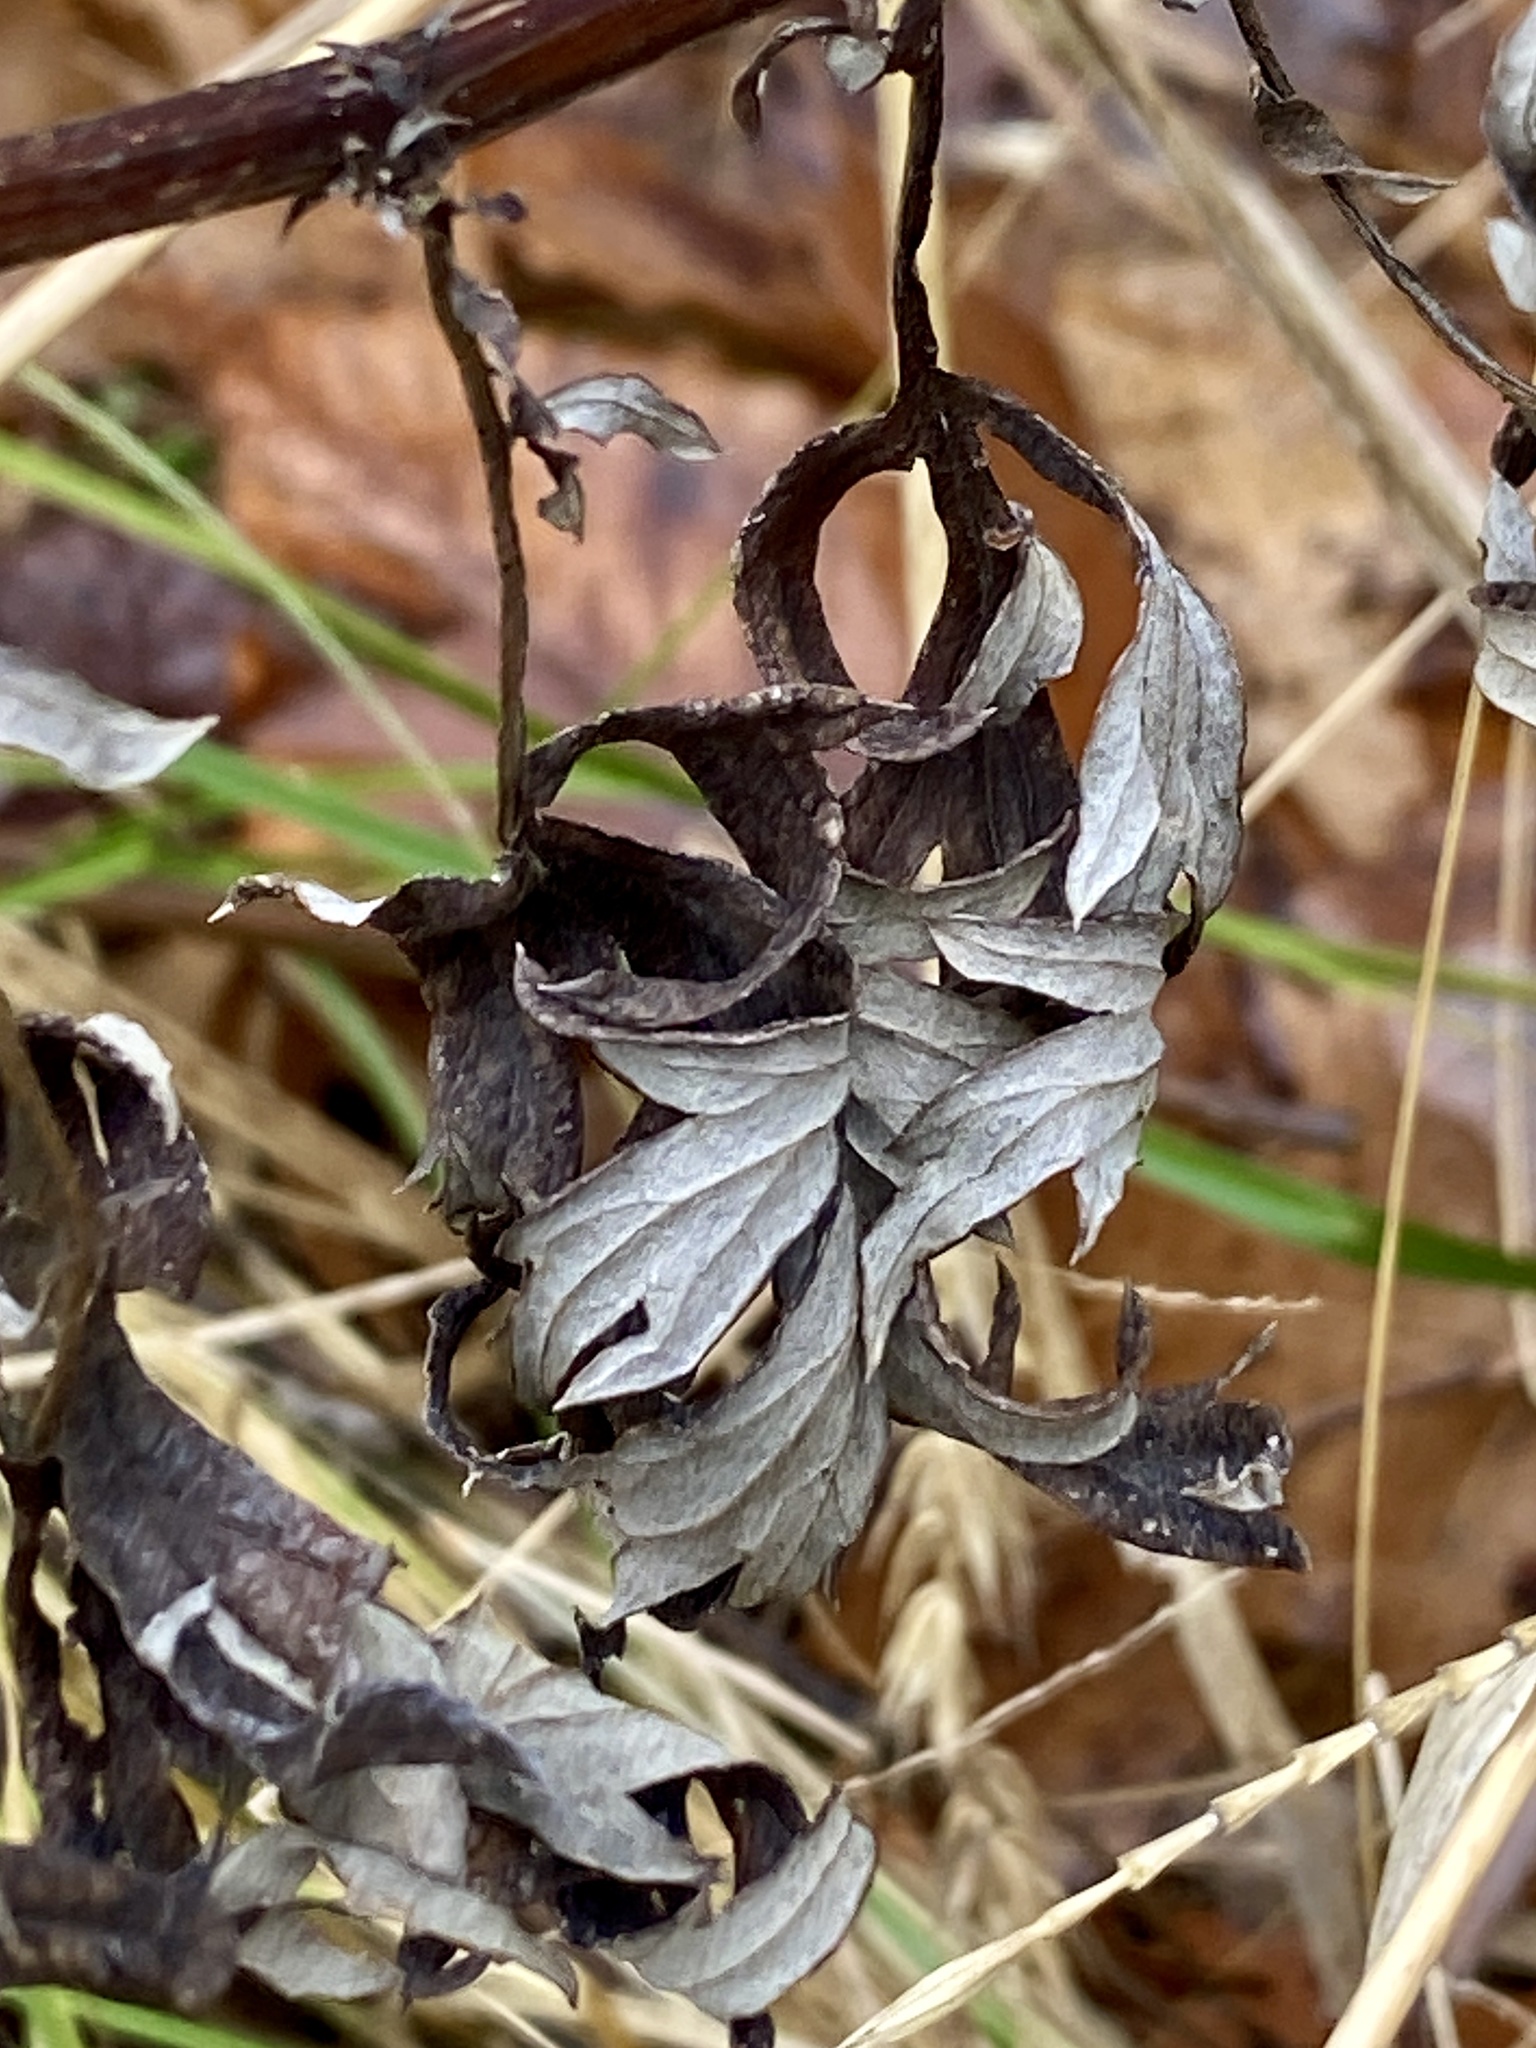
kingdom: Plantae
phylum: Tracheophyta
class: Magnoliopsida
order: Asterales
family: Asteraceae
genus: Artemisia
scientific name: Artemisia vulgaris
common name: Mugwort
